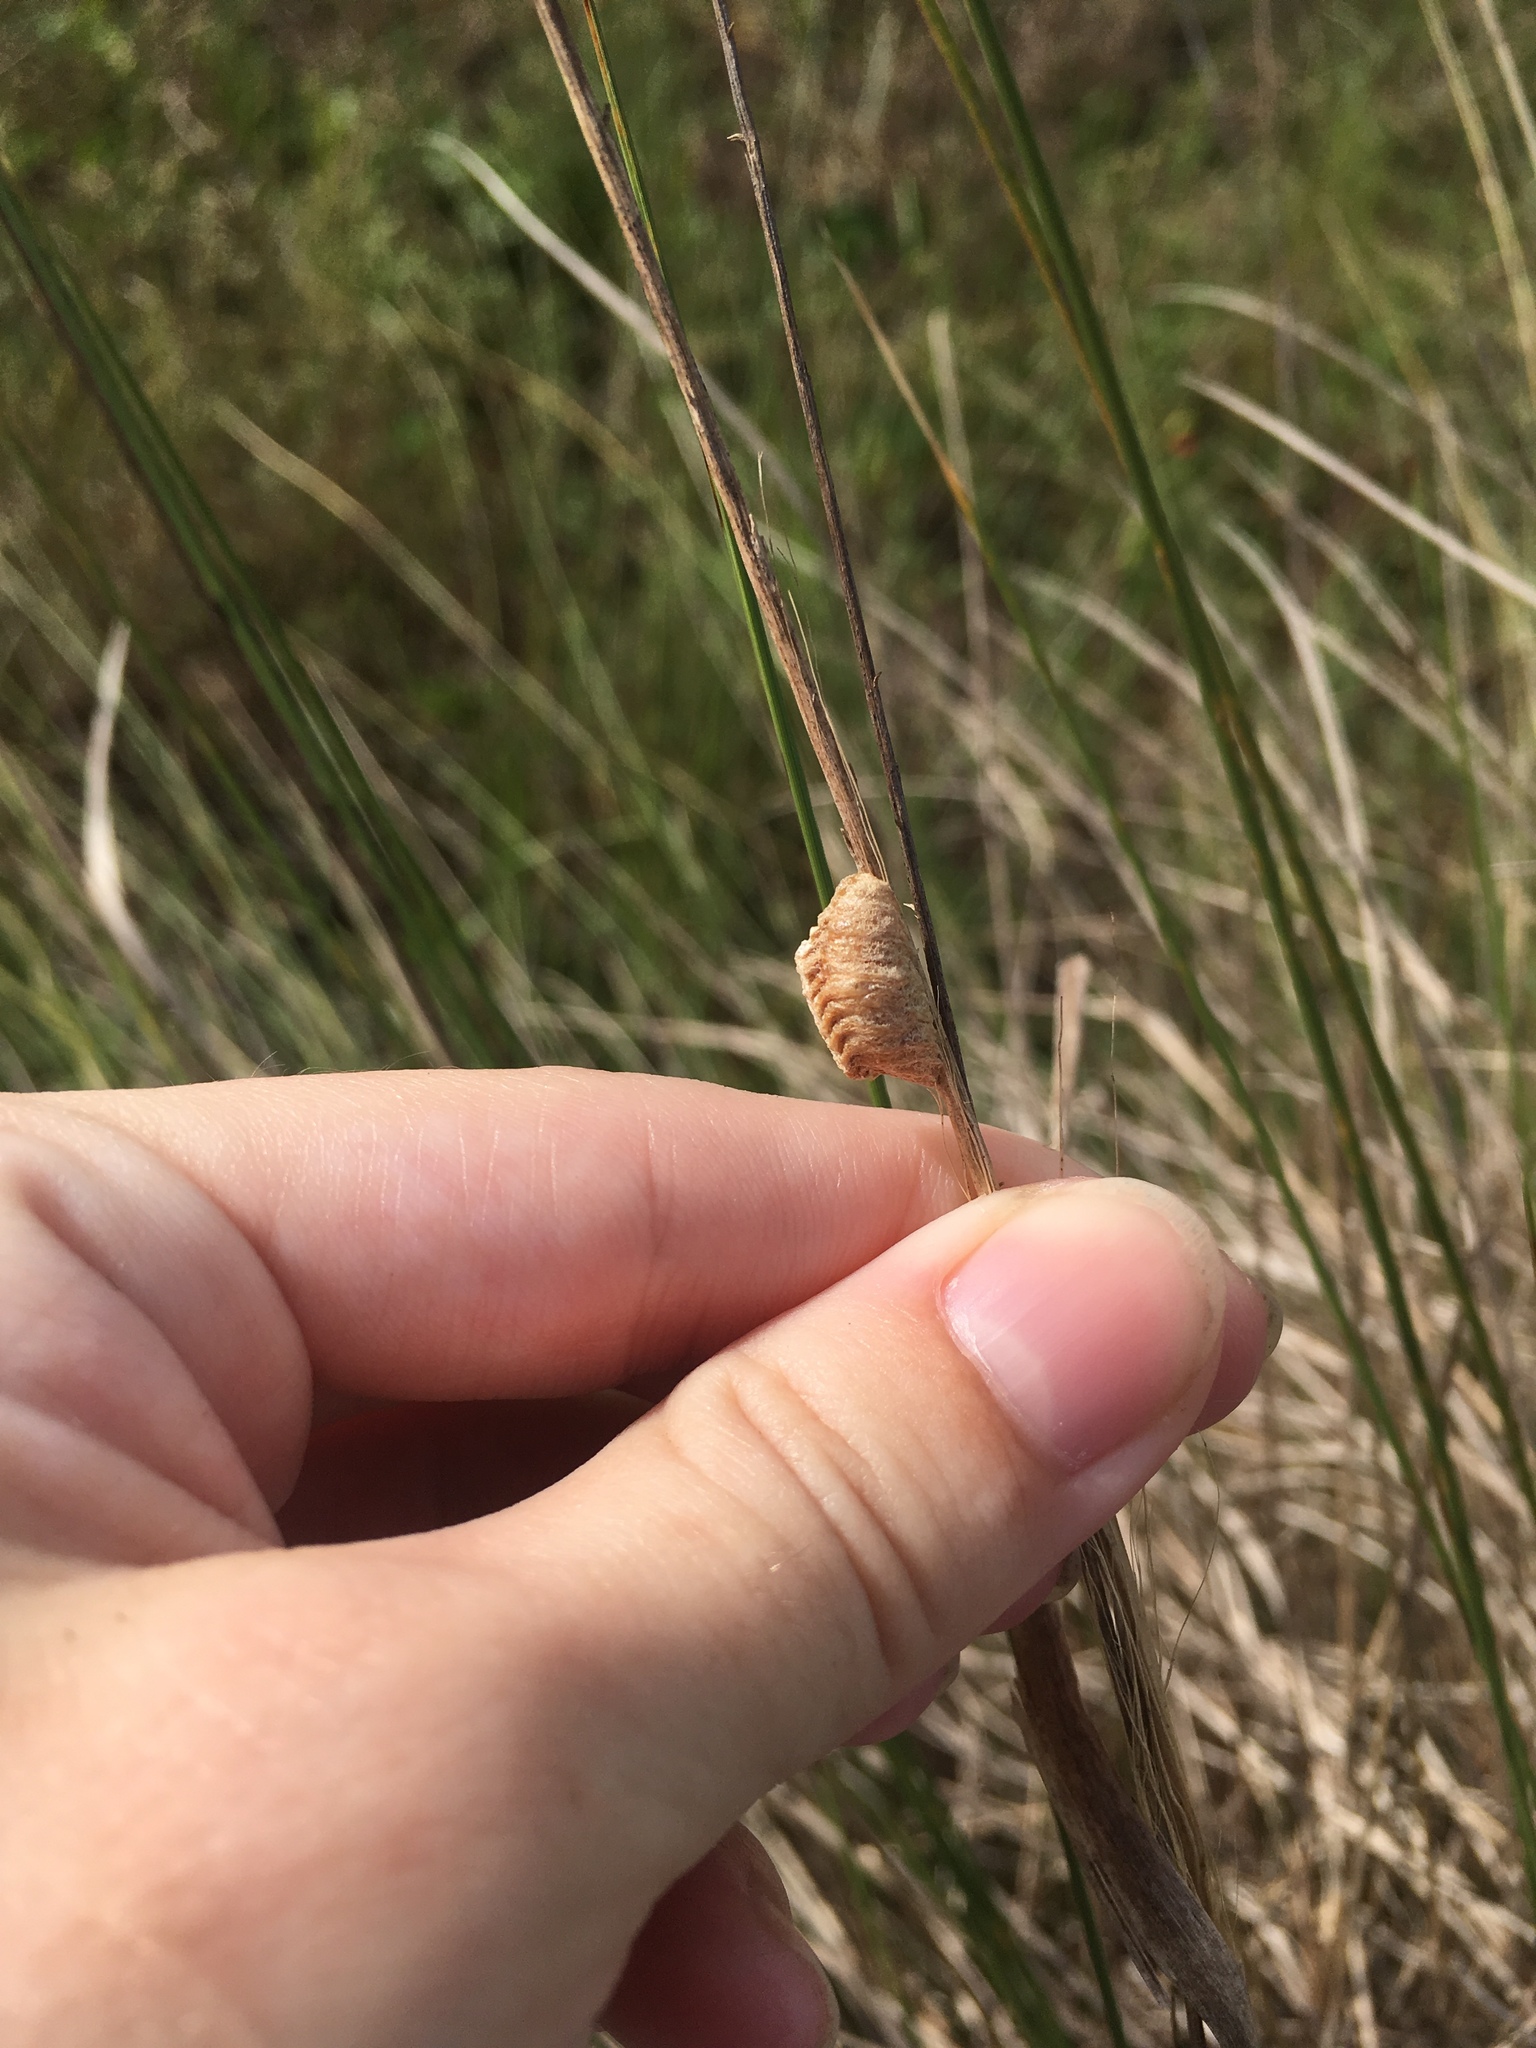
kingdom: Animalia
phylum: Arthropoda
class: Insecta
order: Mantodea
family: Mantidae
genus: Stagmomantis
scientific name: Stagmomantis carolina
